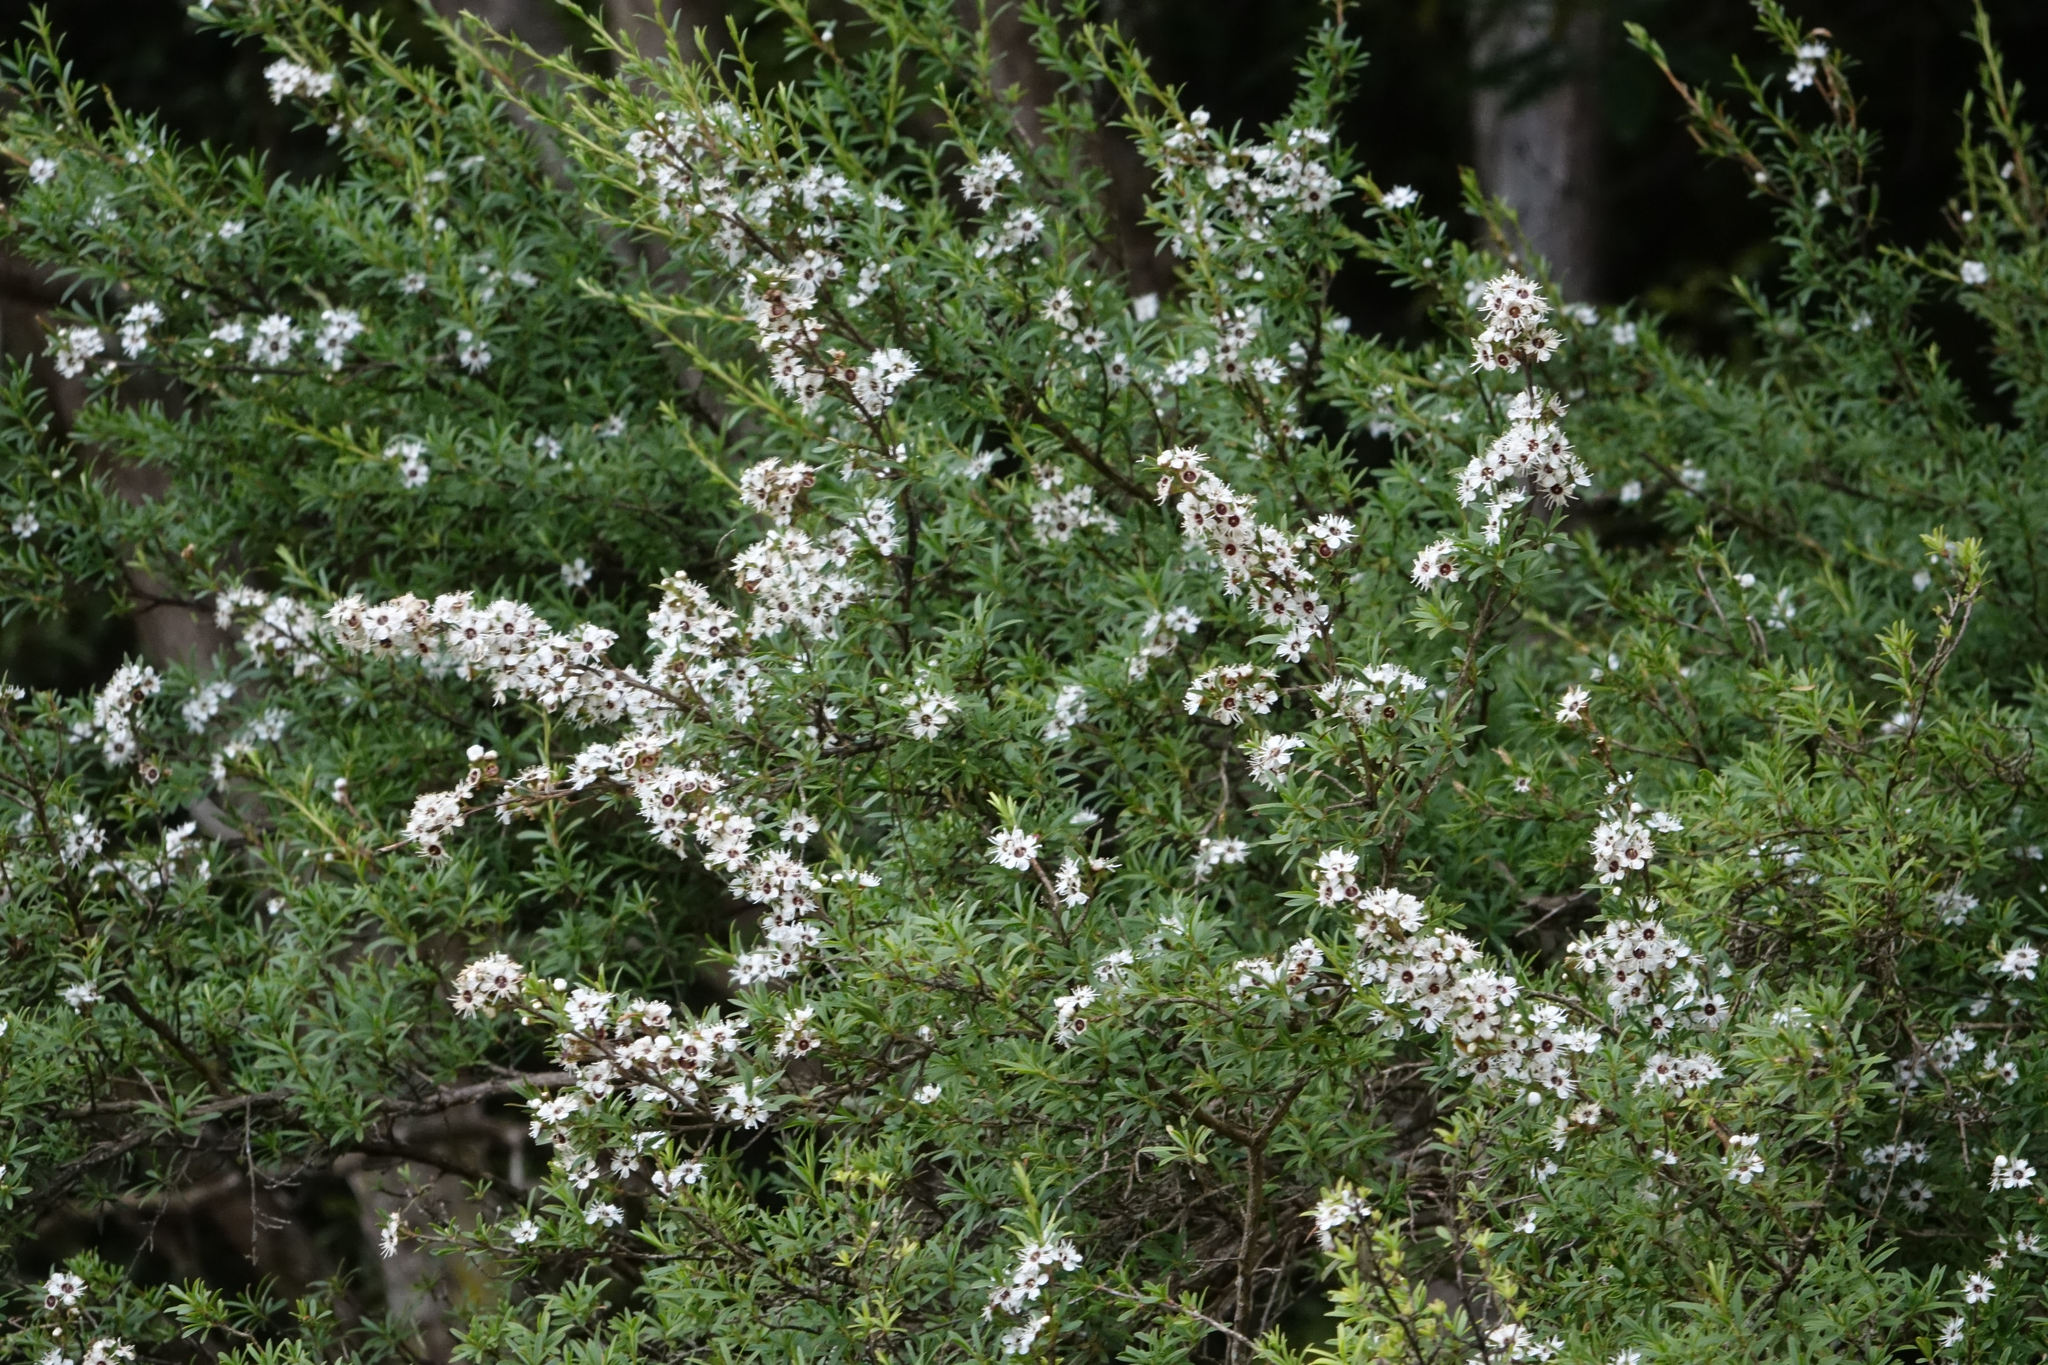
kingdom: Plantae
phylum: Tracheophyta
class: Magnoliopsida
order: Myrtales
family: Myrtaceae
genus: Kunzea
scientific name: Kunzea robusta
